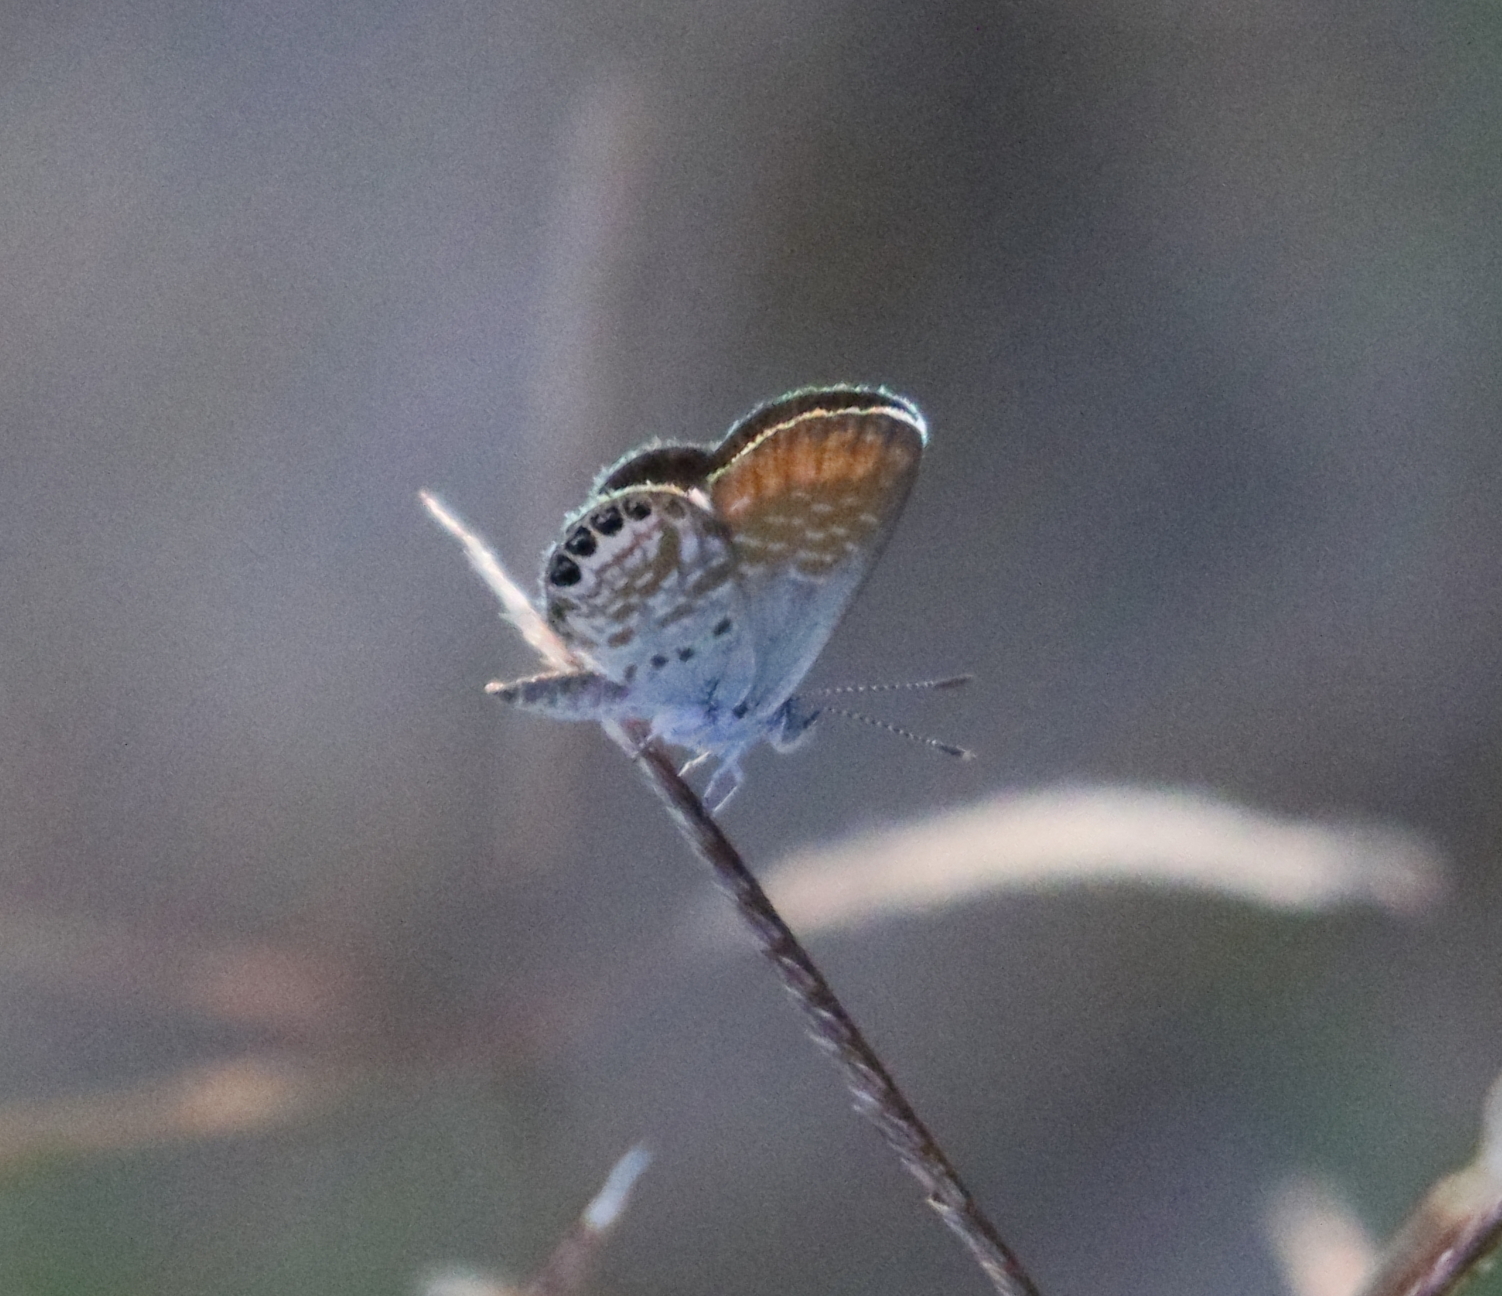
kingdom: Animalia
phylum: Arthropoda
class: Insecta
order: Lepidoptera
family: Lycaenidae
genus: Brephidium
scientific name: Brephidium exilis
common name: Pygmy blue
